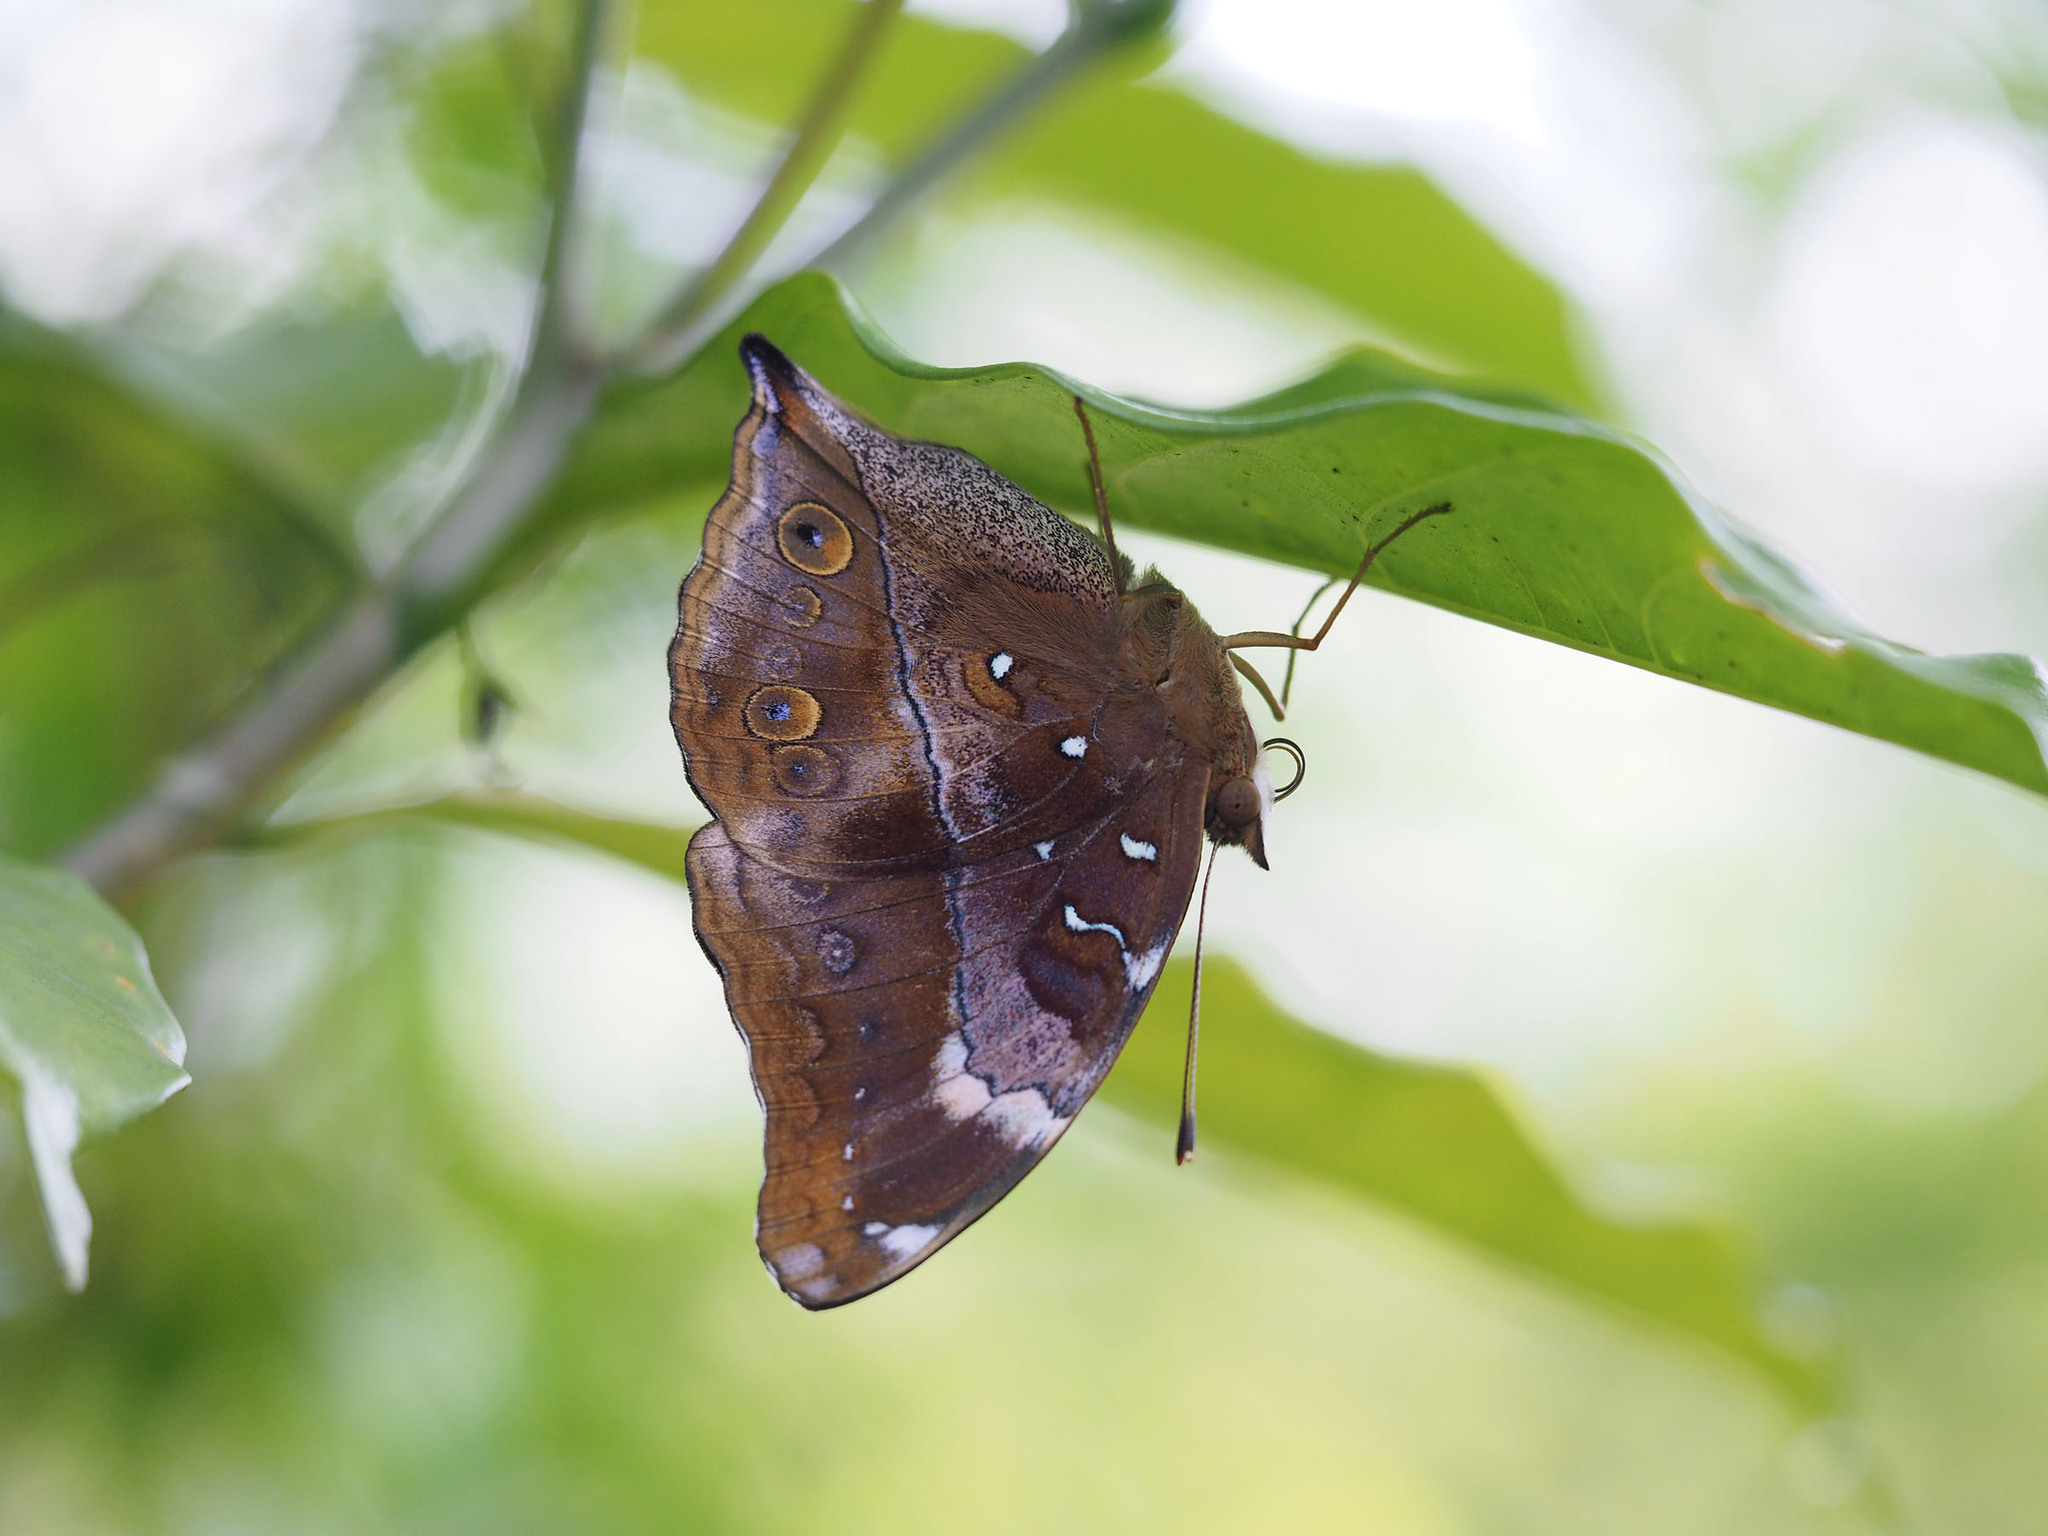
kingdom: Animalia
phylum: Arthropoda
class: Insecta
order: Lepidoptera
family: Nymphalidae
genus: Doleschallia
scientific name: Doleschallia bisaltide
